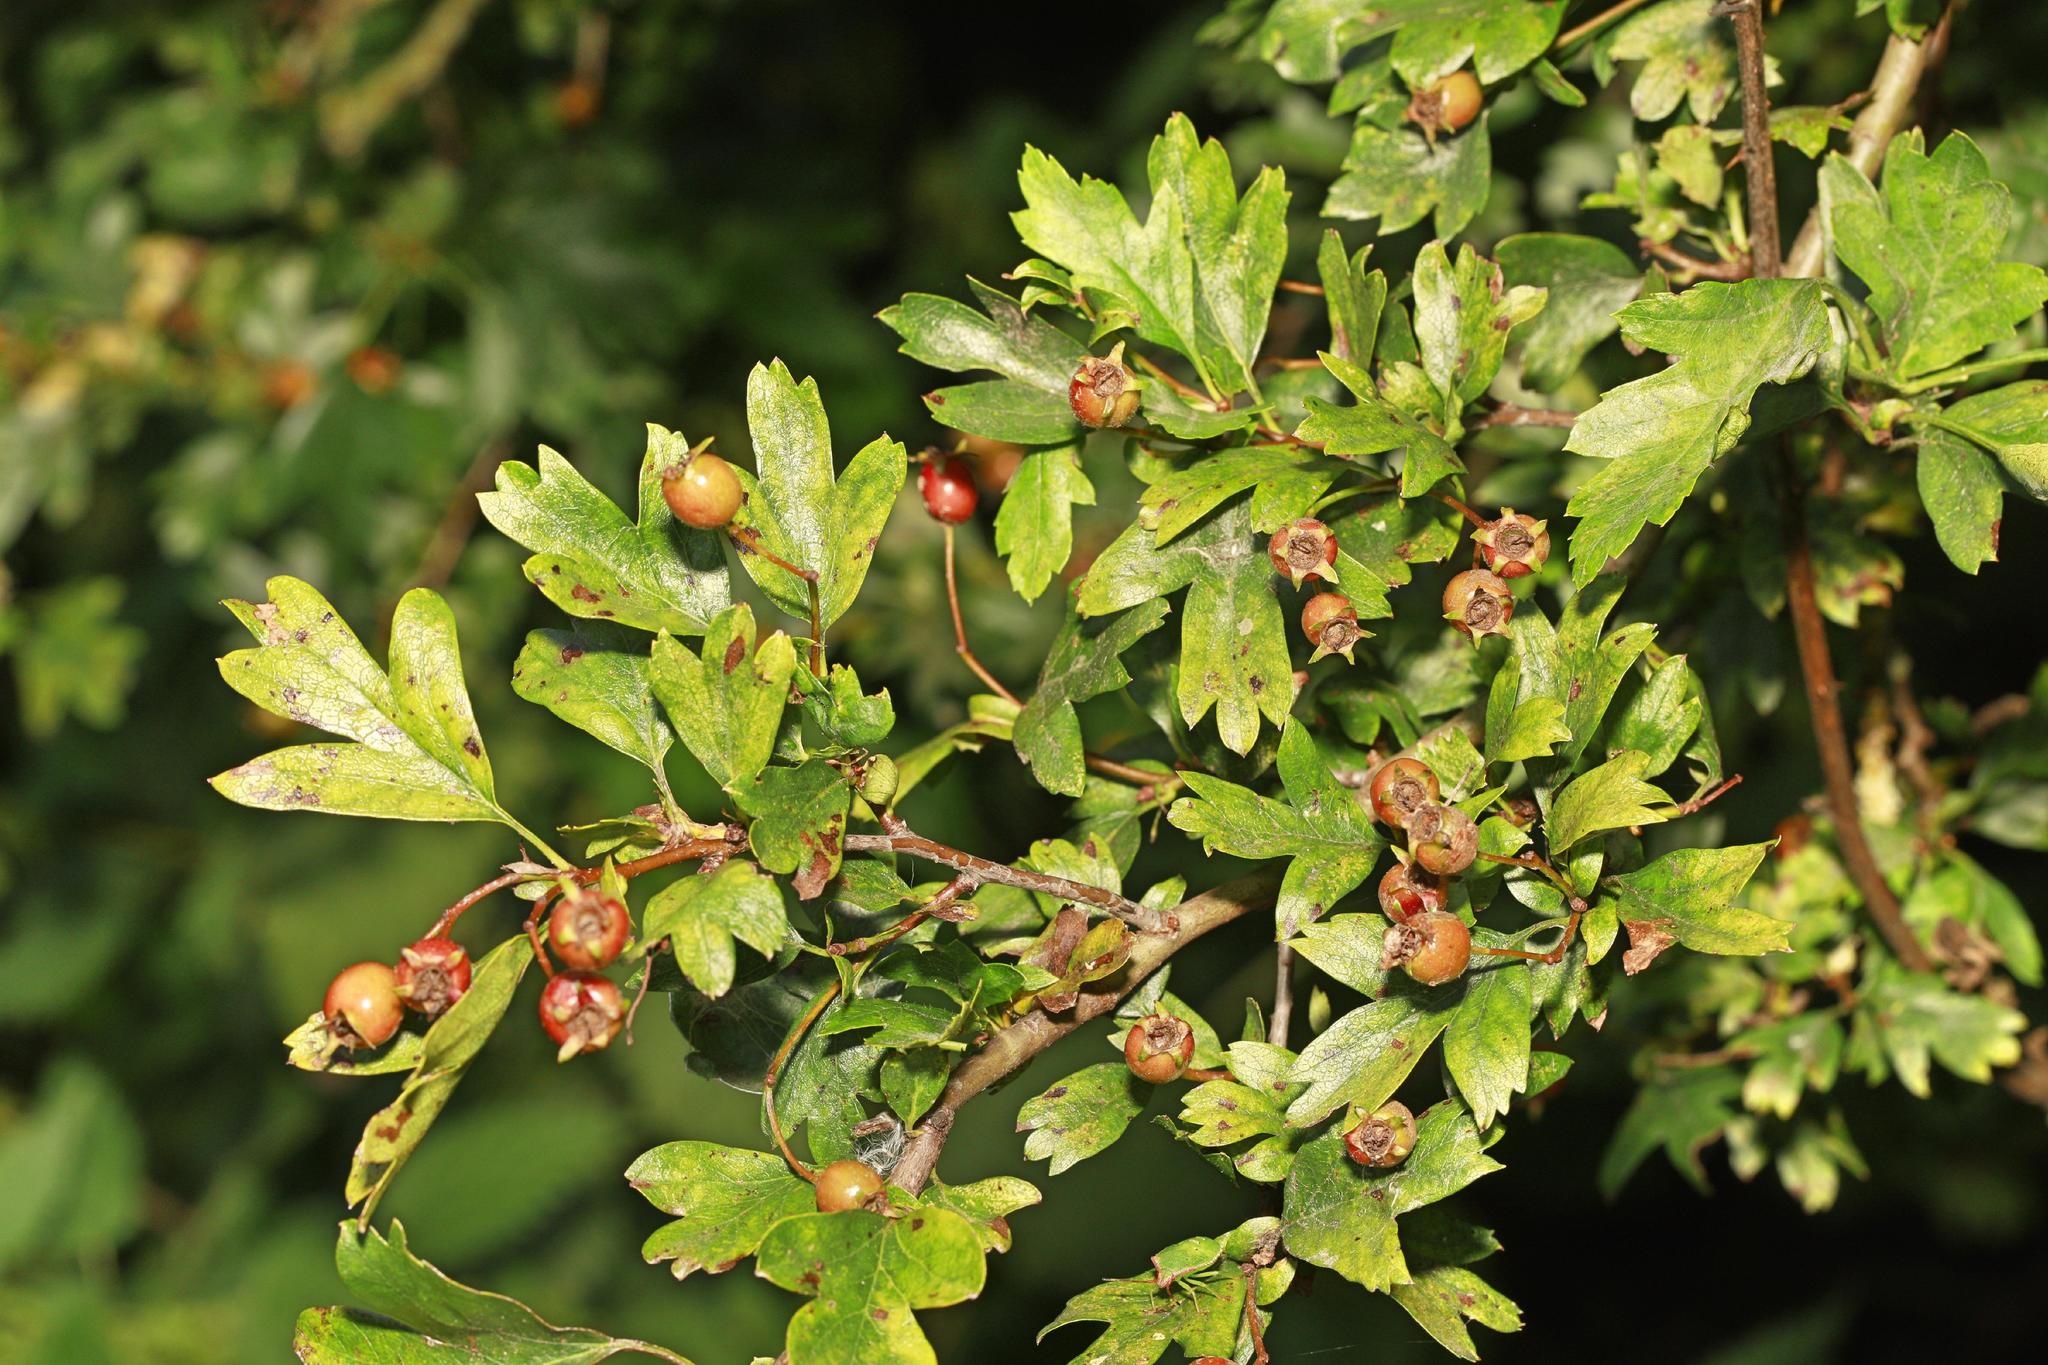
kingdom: Plantae
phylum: Tracheophyta
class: Magnoliopsida
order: Rosales
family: Rosaceae
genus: Crataegus
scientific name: Crataegus monogyna
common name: Hawthorn
